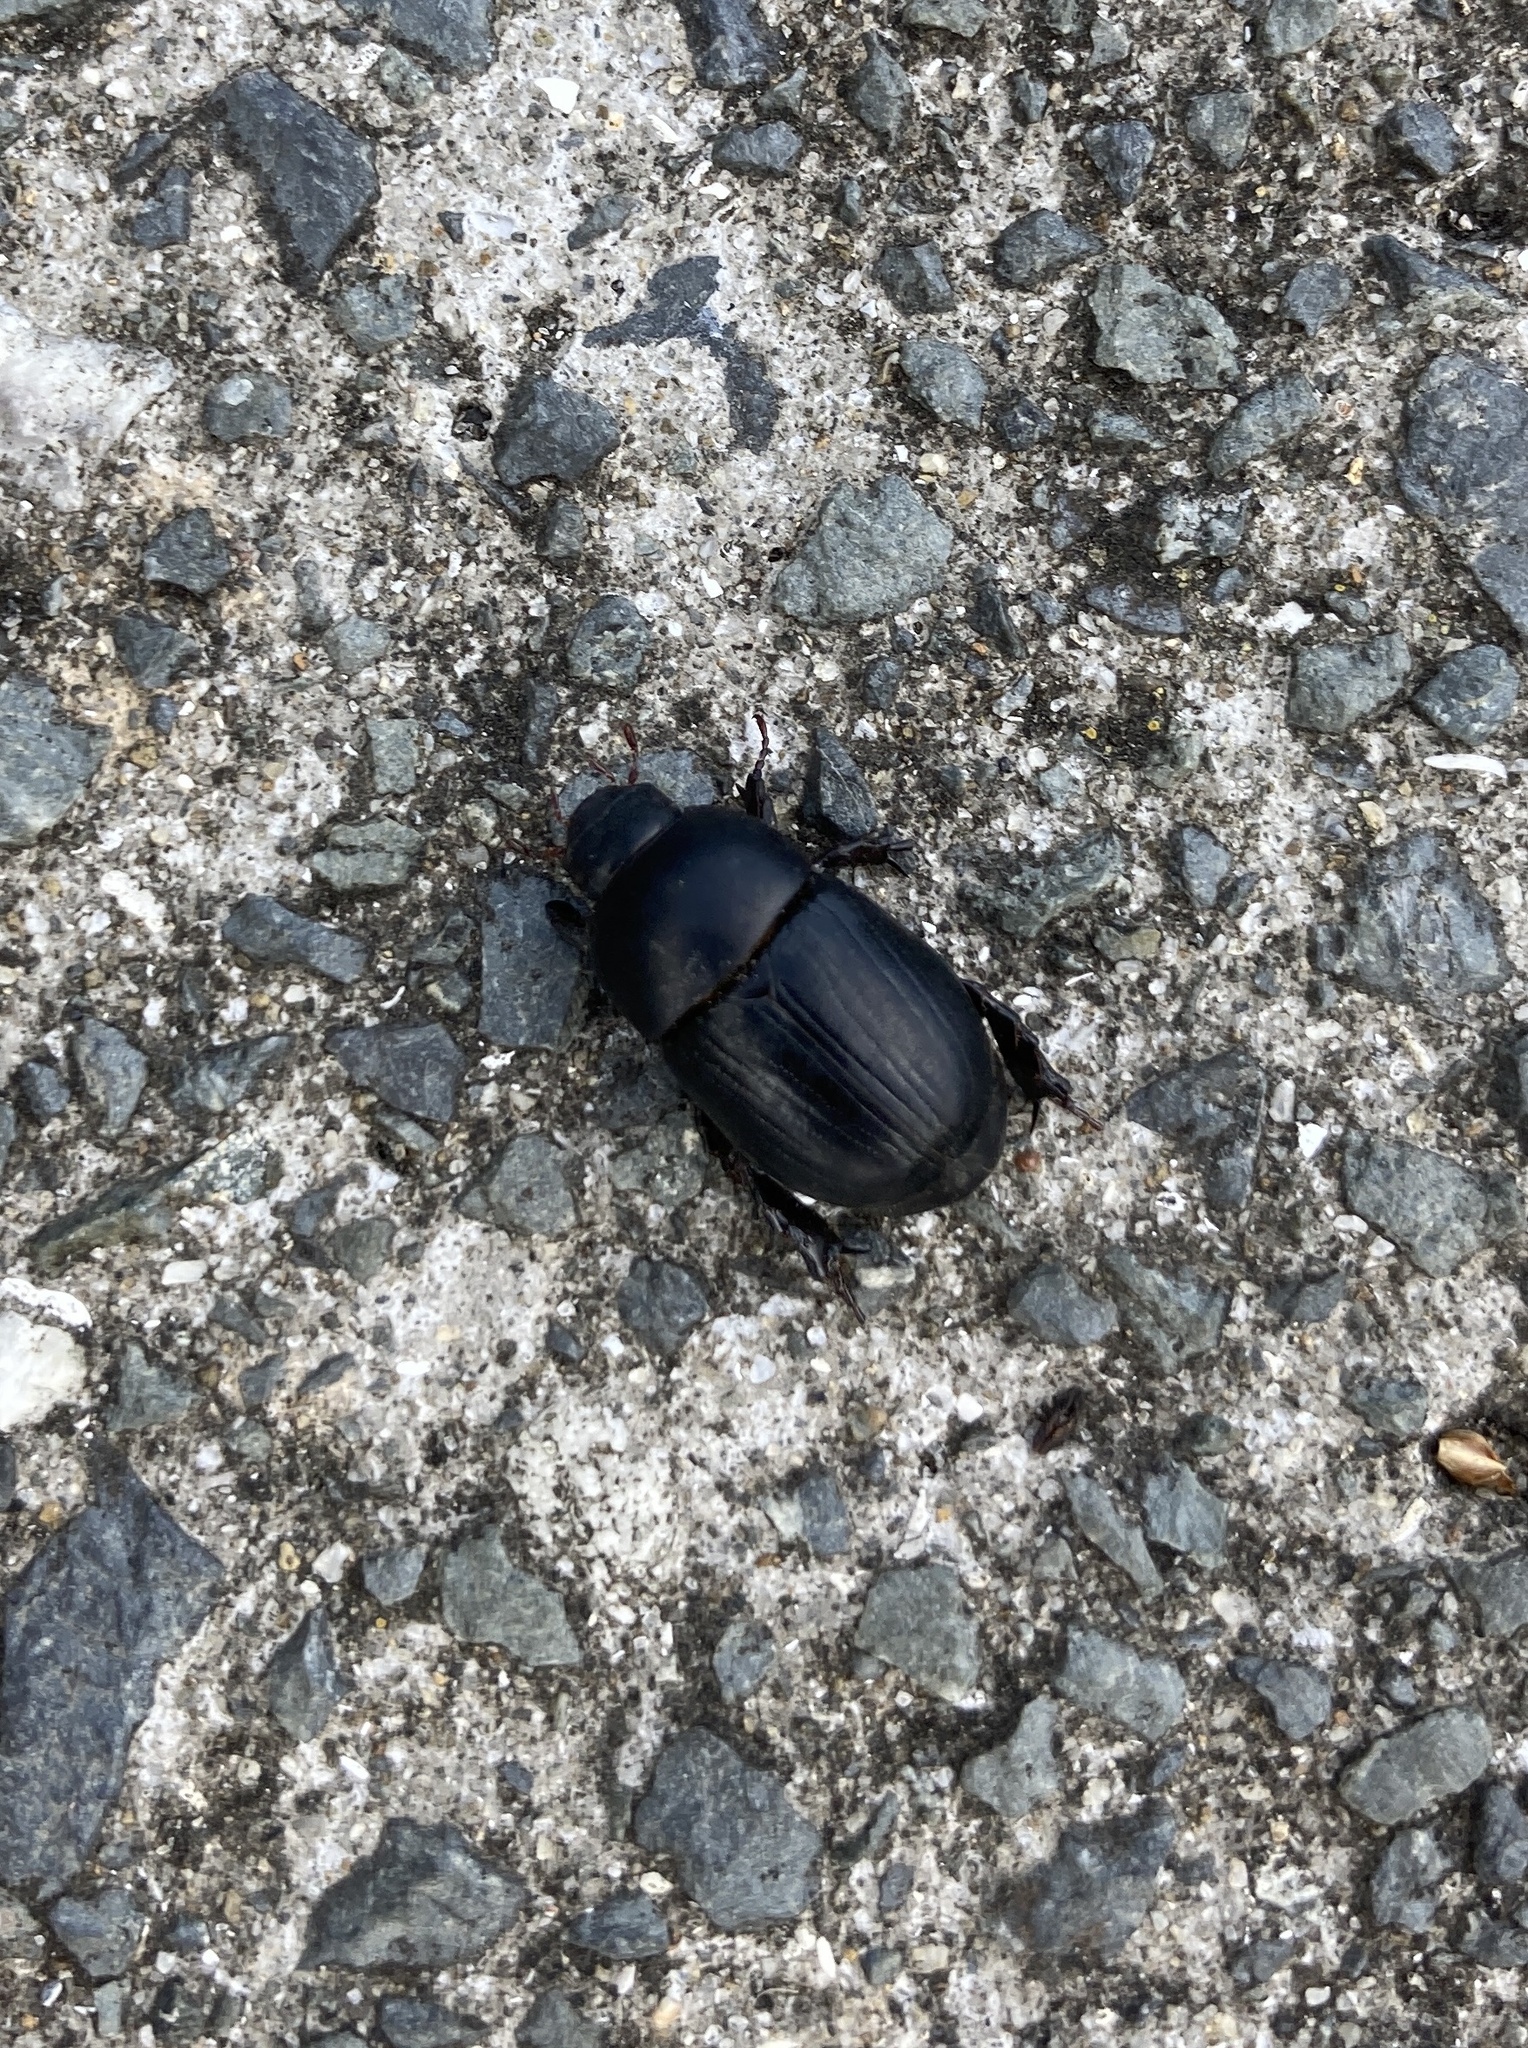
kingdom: Animalia
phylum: Arthropoda
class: Insecta
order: Coleoptera
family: Scarabaeidae
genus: Heteronychus
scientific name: Heteronychus arator
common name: African black beetle
